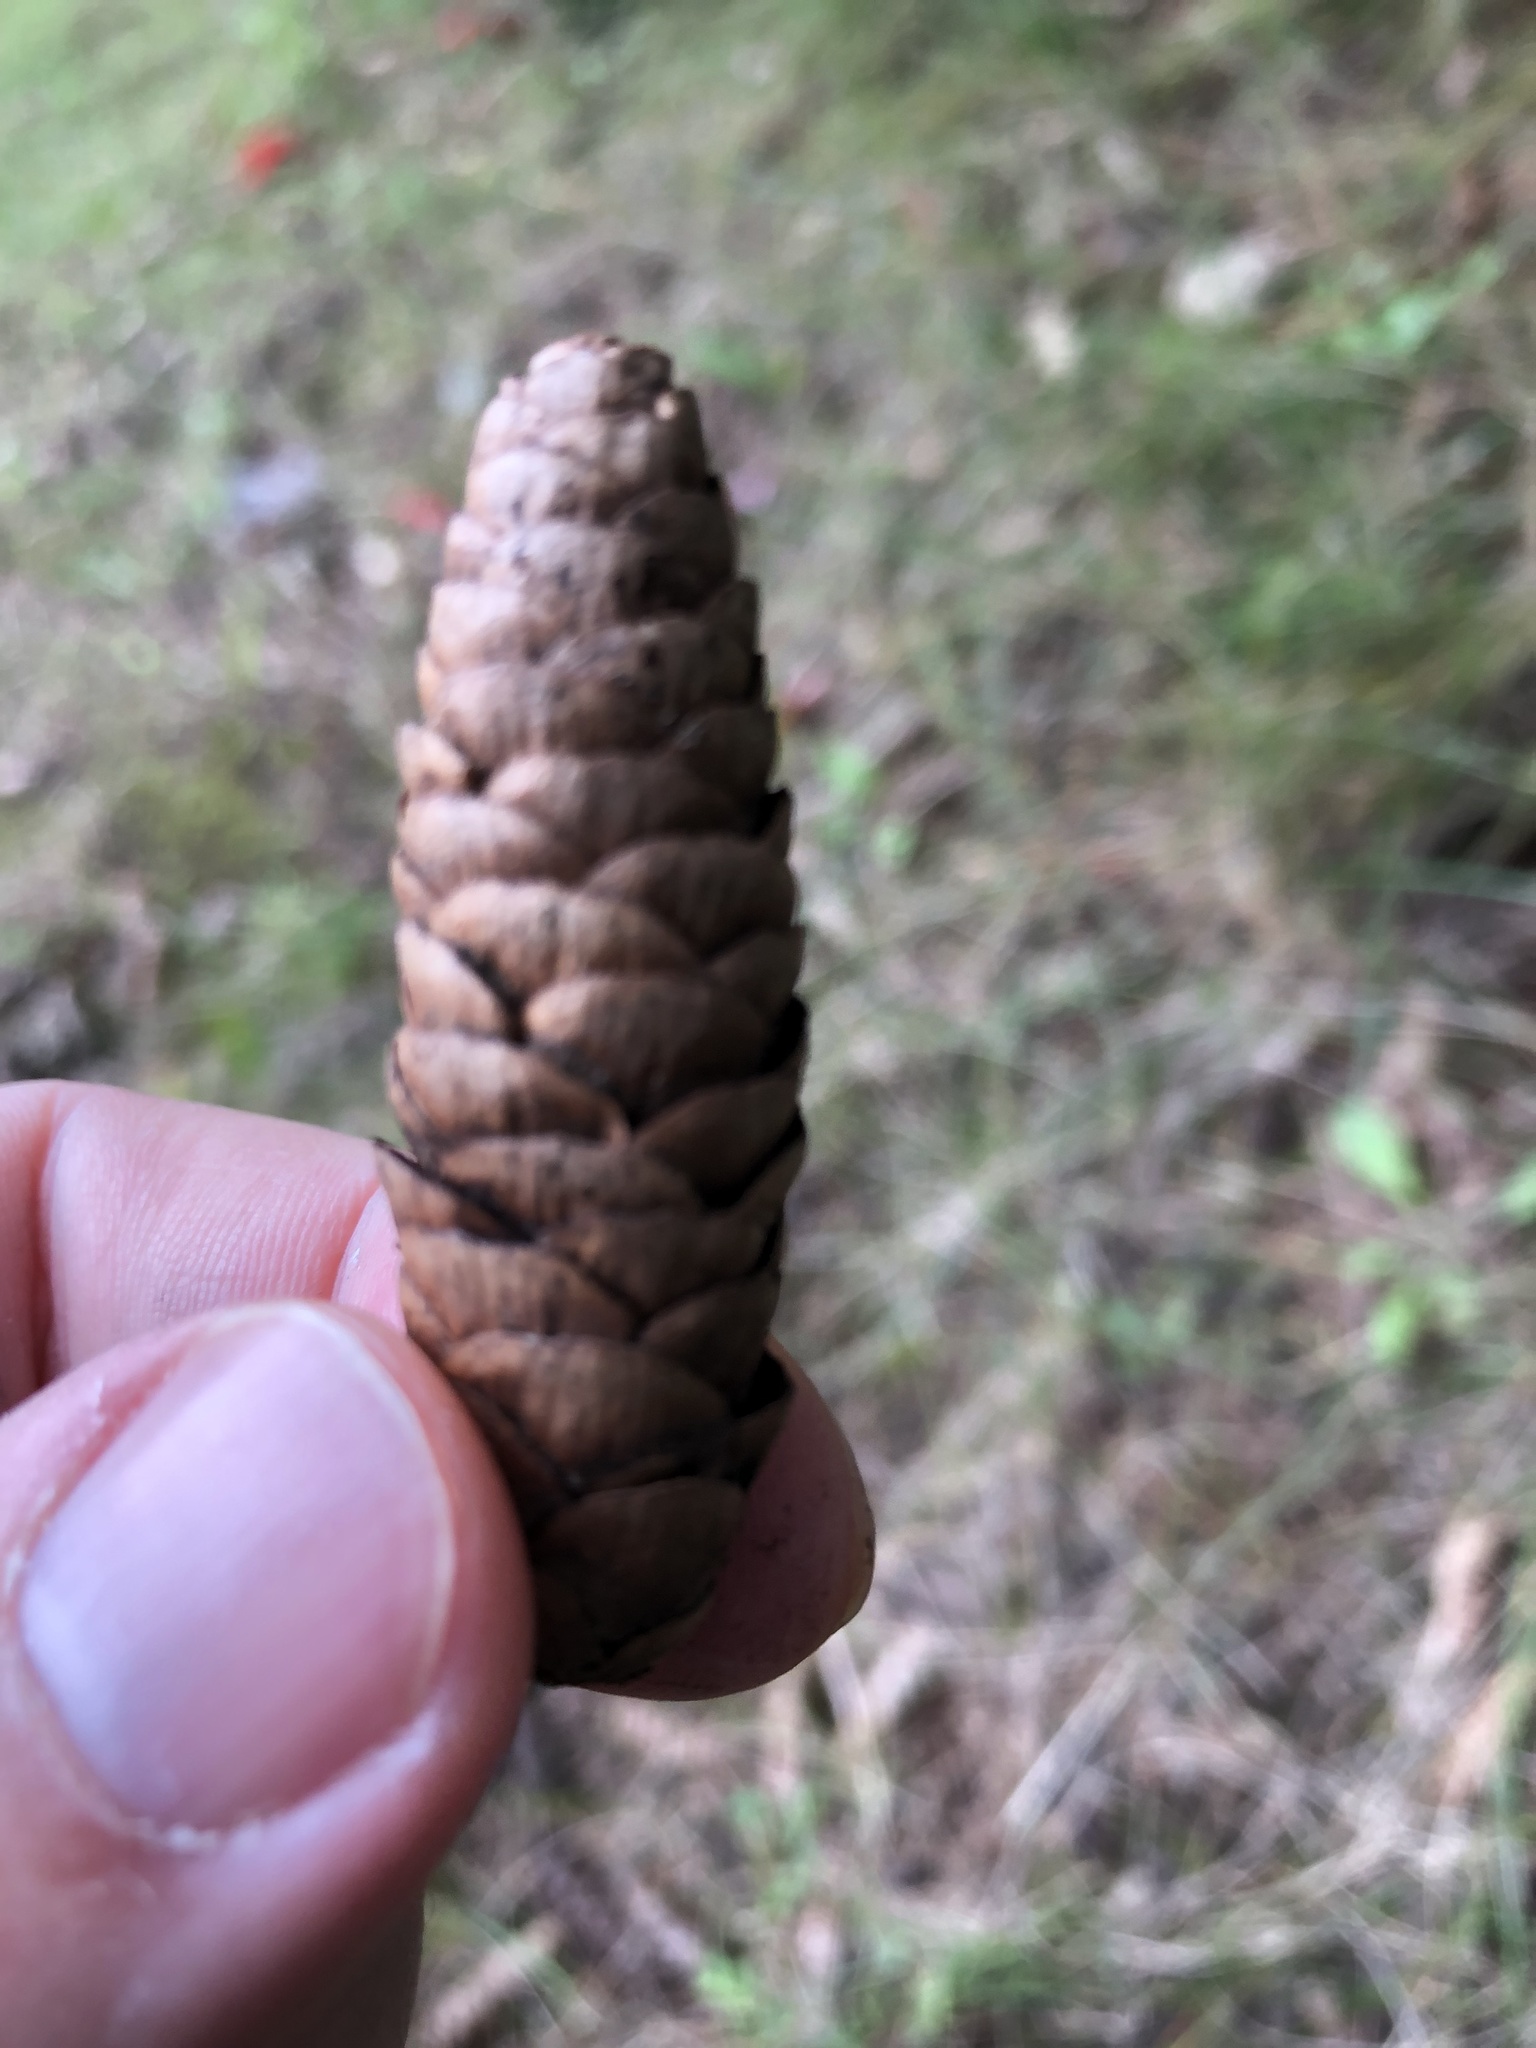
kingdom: Plantae
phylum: Tracheophyta
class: Pinopsida
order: Pinales
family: Pinaceae
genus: Picea
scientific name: Picea glauca
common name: White spruce
